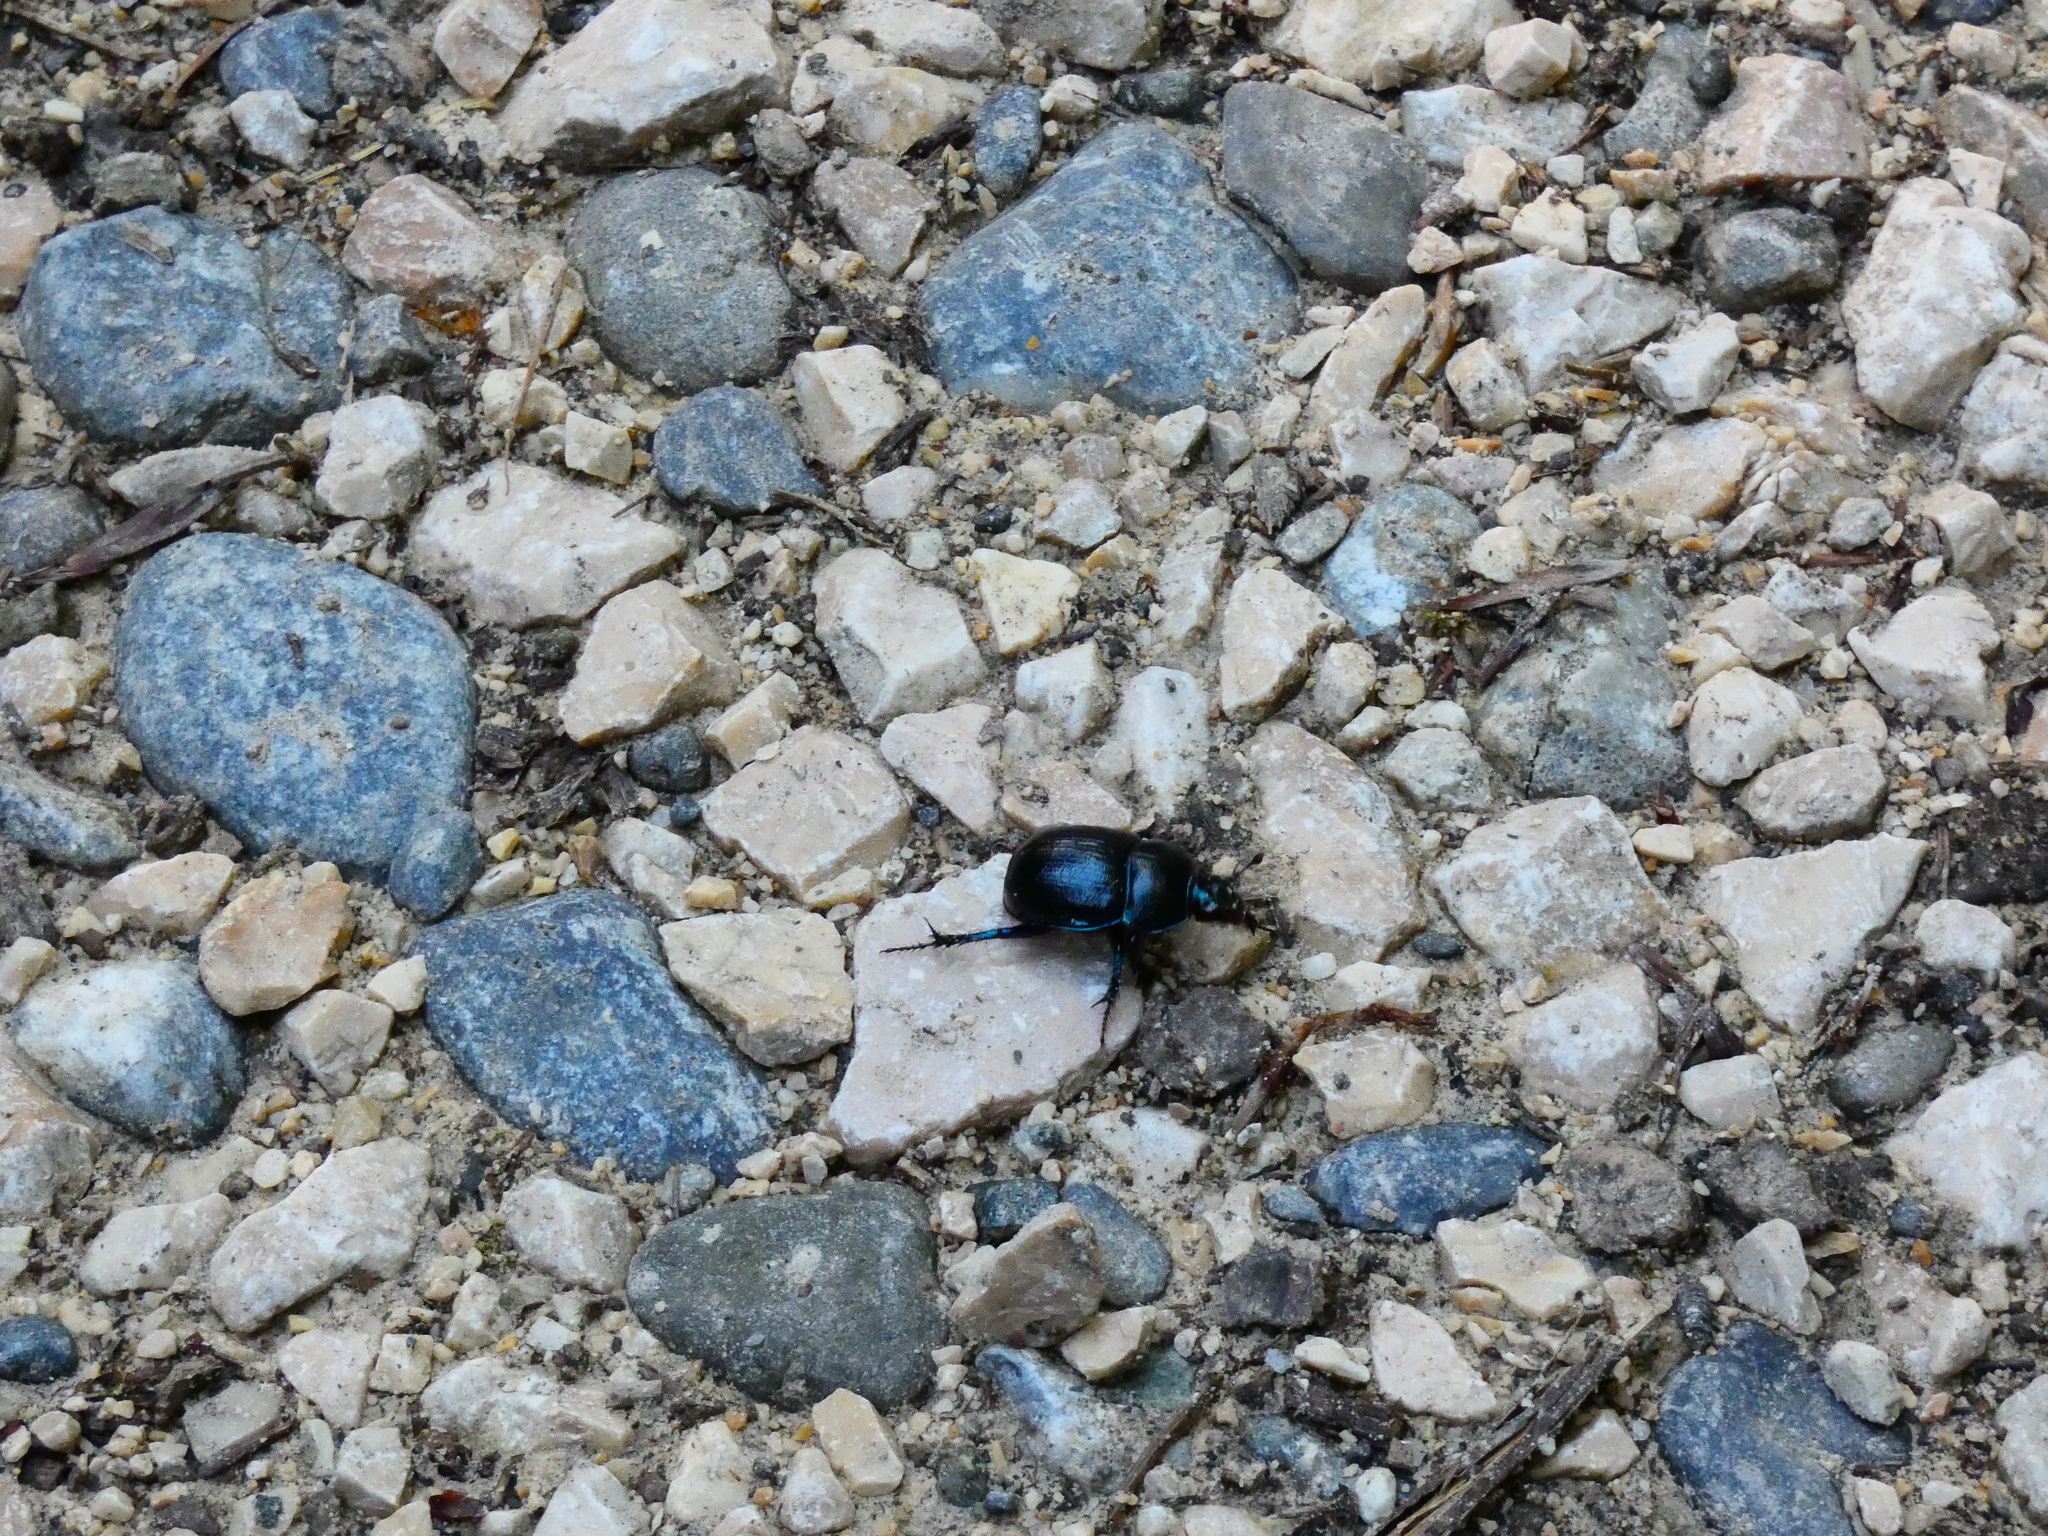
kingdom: Animalia
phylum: Arthropoda
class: Insecta
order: Coleoptera
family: Geotrupidae
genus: Anoplotrupes
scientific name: Anoplotrupes stercorosus
